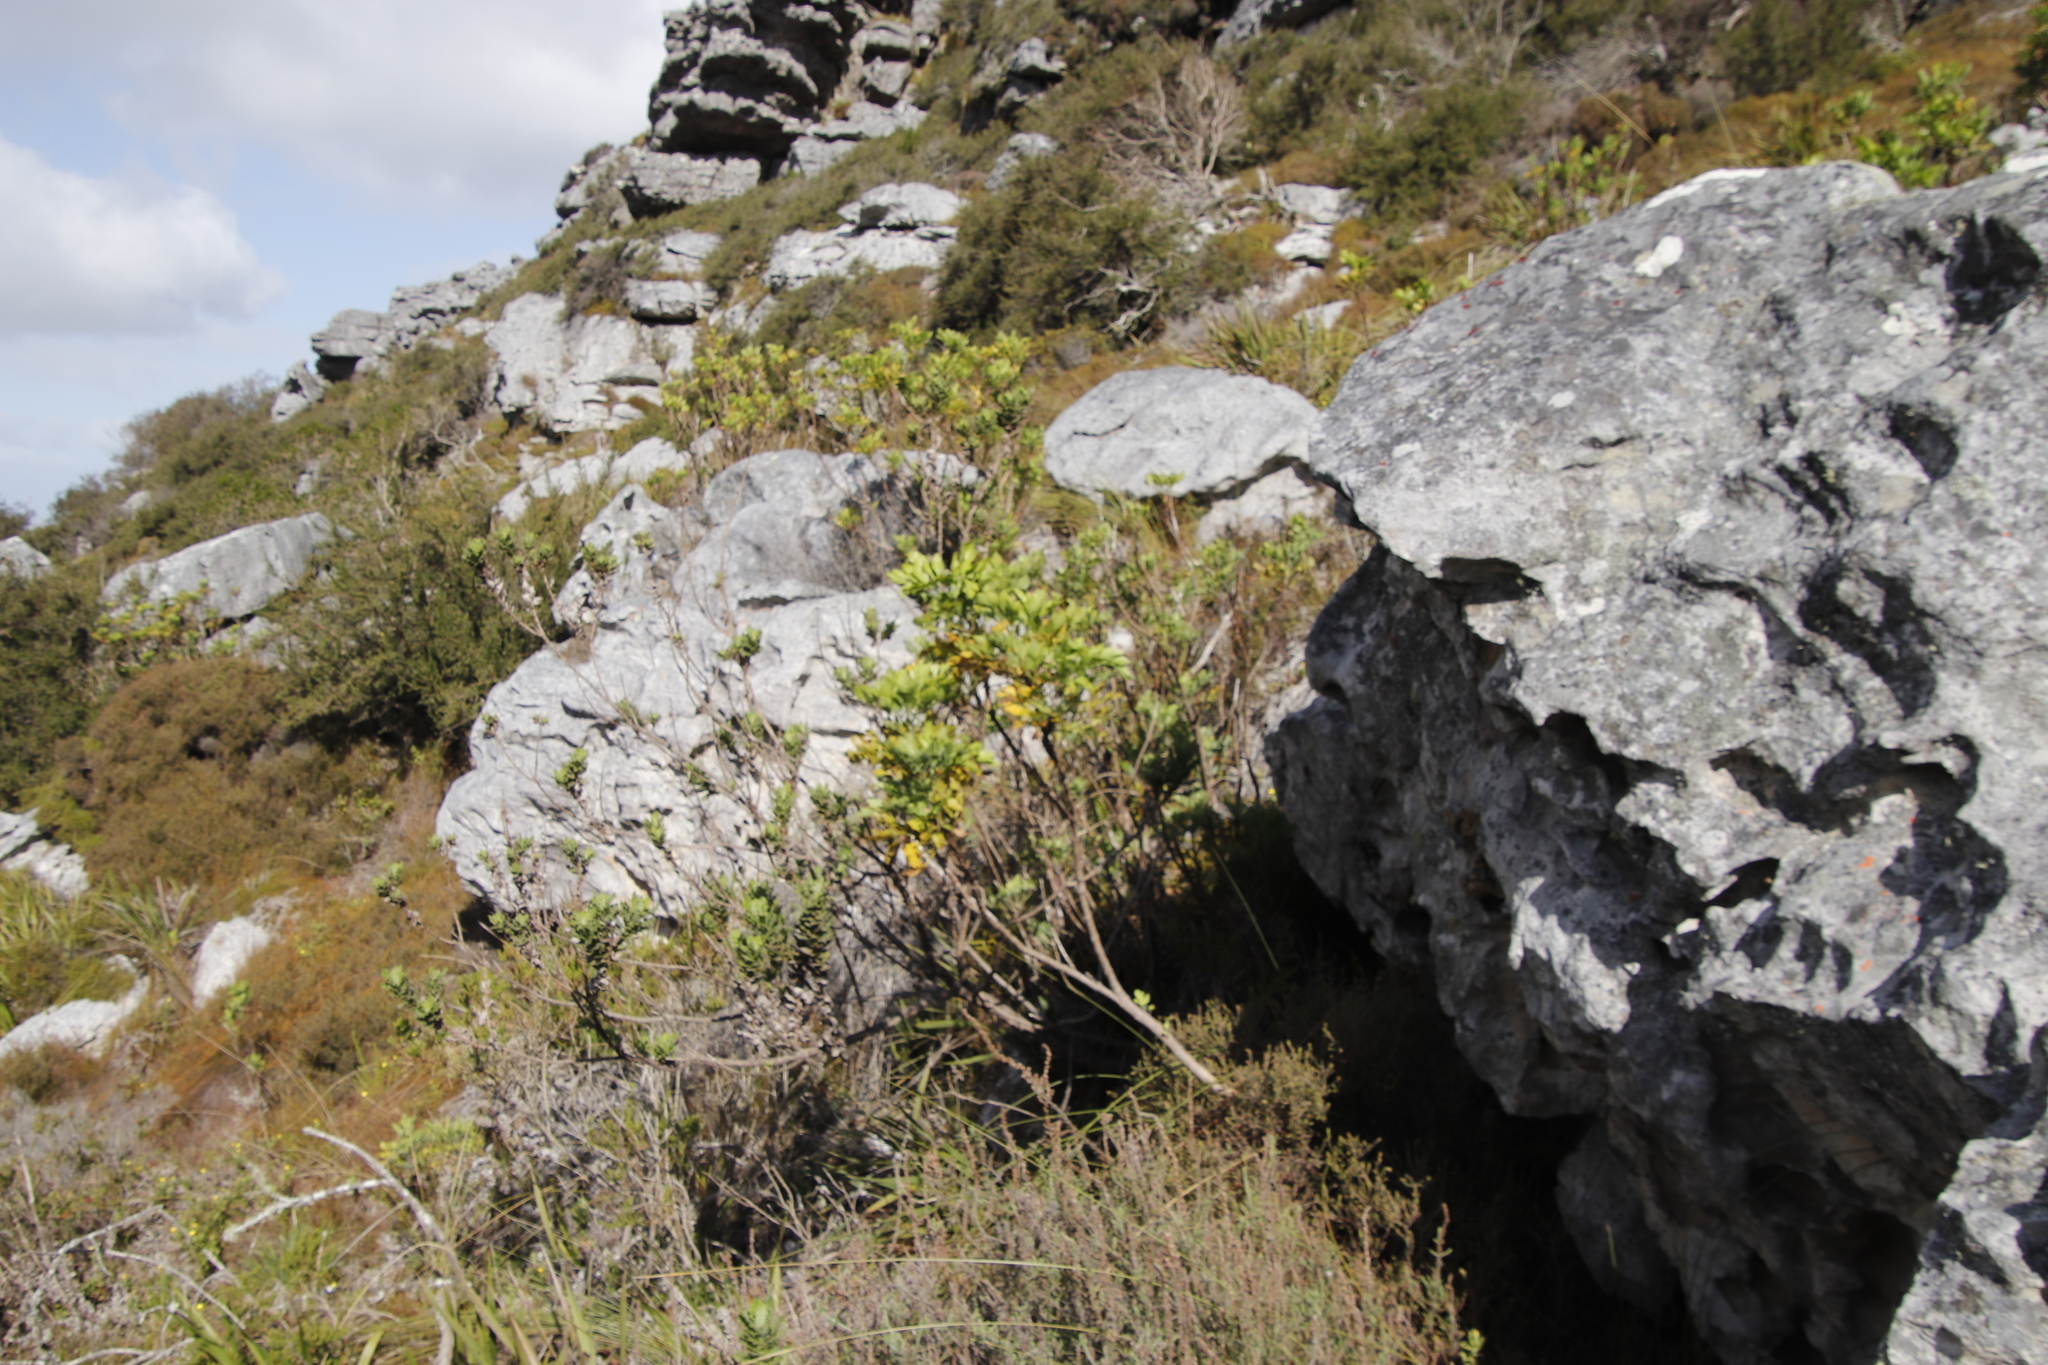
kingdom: Plantae
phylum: Tracheophyta
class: Magnoliopsida
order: Apiales
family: Apiaceae
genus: Notobubon
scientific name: Notobubon galbanum
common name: Blisterbush
